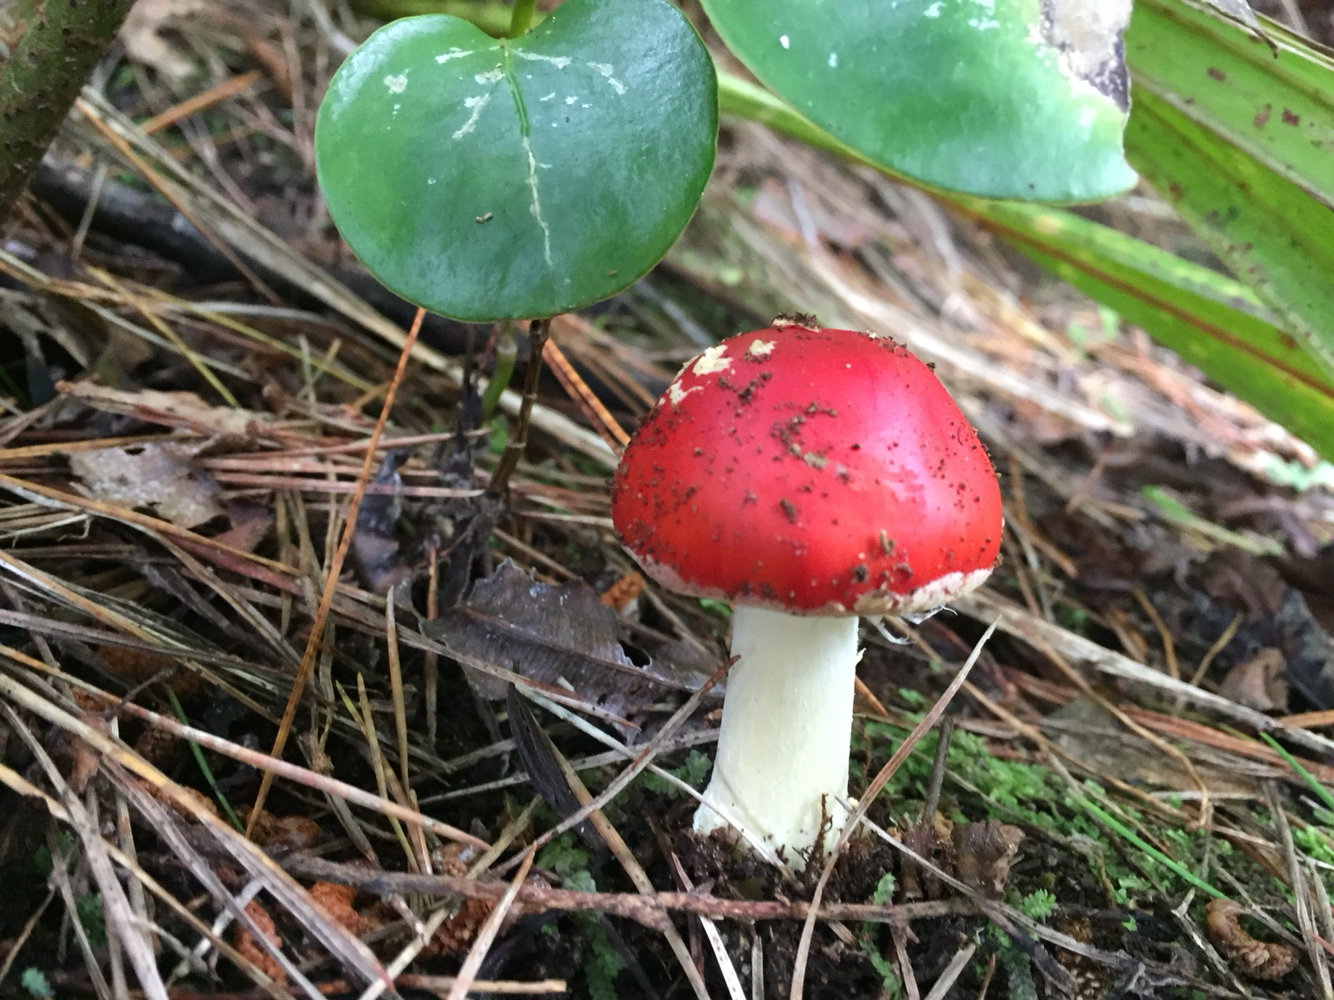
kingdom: Fungi
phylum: Basidiomycota
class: Agaricomycetes
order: Agaricales
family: Amanitaceae
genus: Amanita
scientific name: Amanita muscaria
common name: Fly agaric
